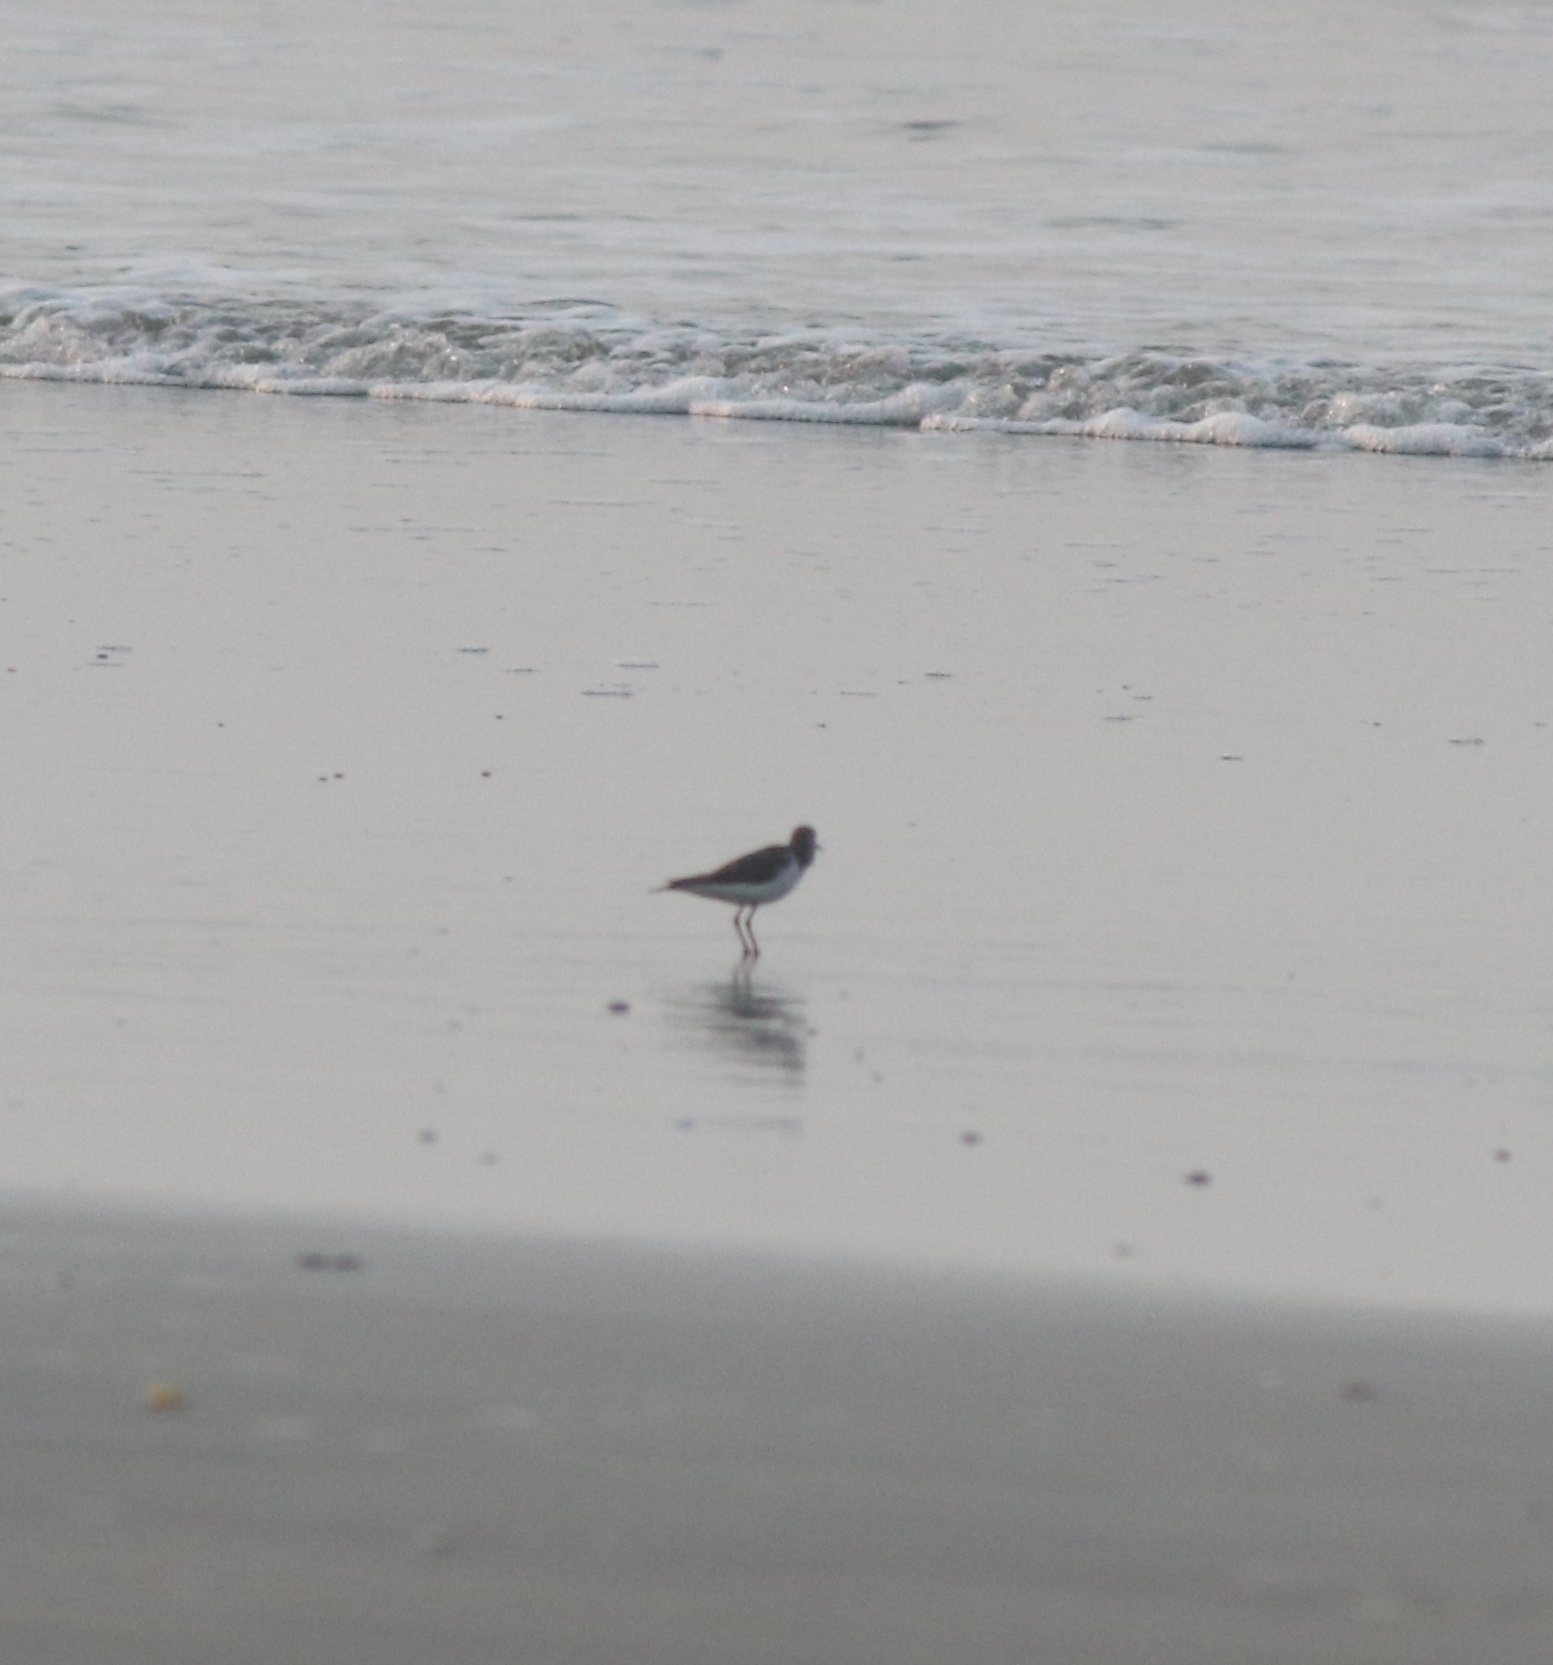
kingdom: Animalia
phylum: Chordata
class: Aves
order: Charadriiformes
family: Scolopacidae
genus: Actitis
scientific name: Actitis hypoleucos
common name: Common sandpiper
